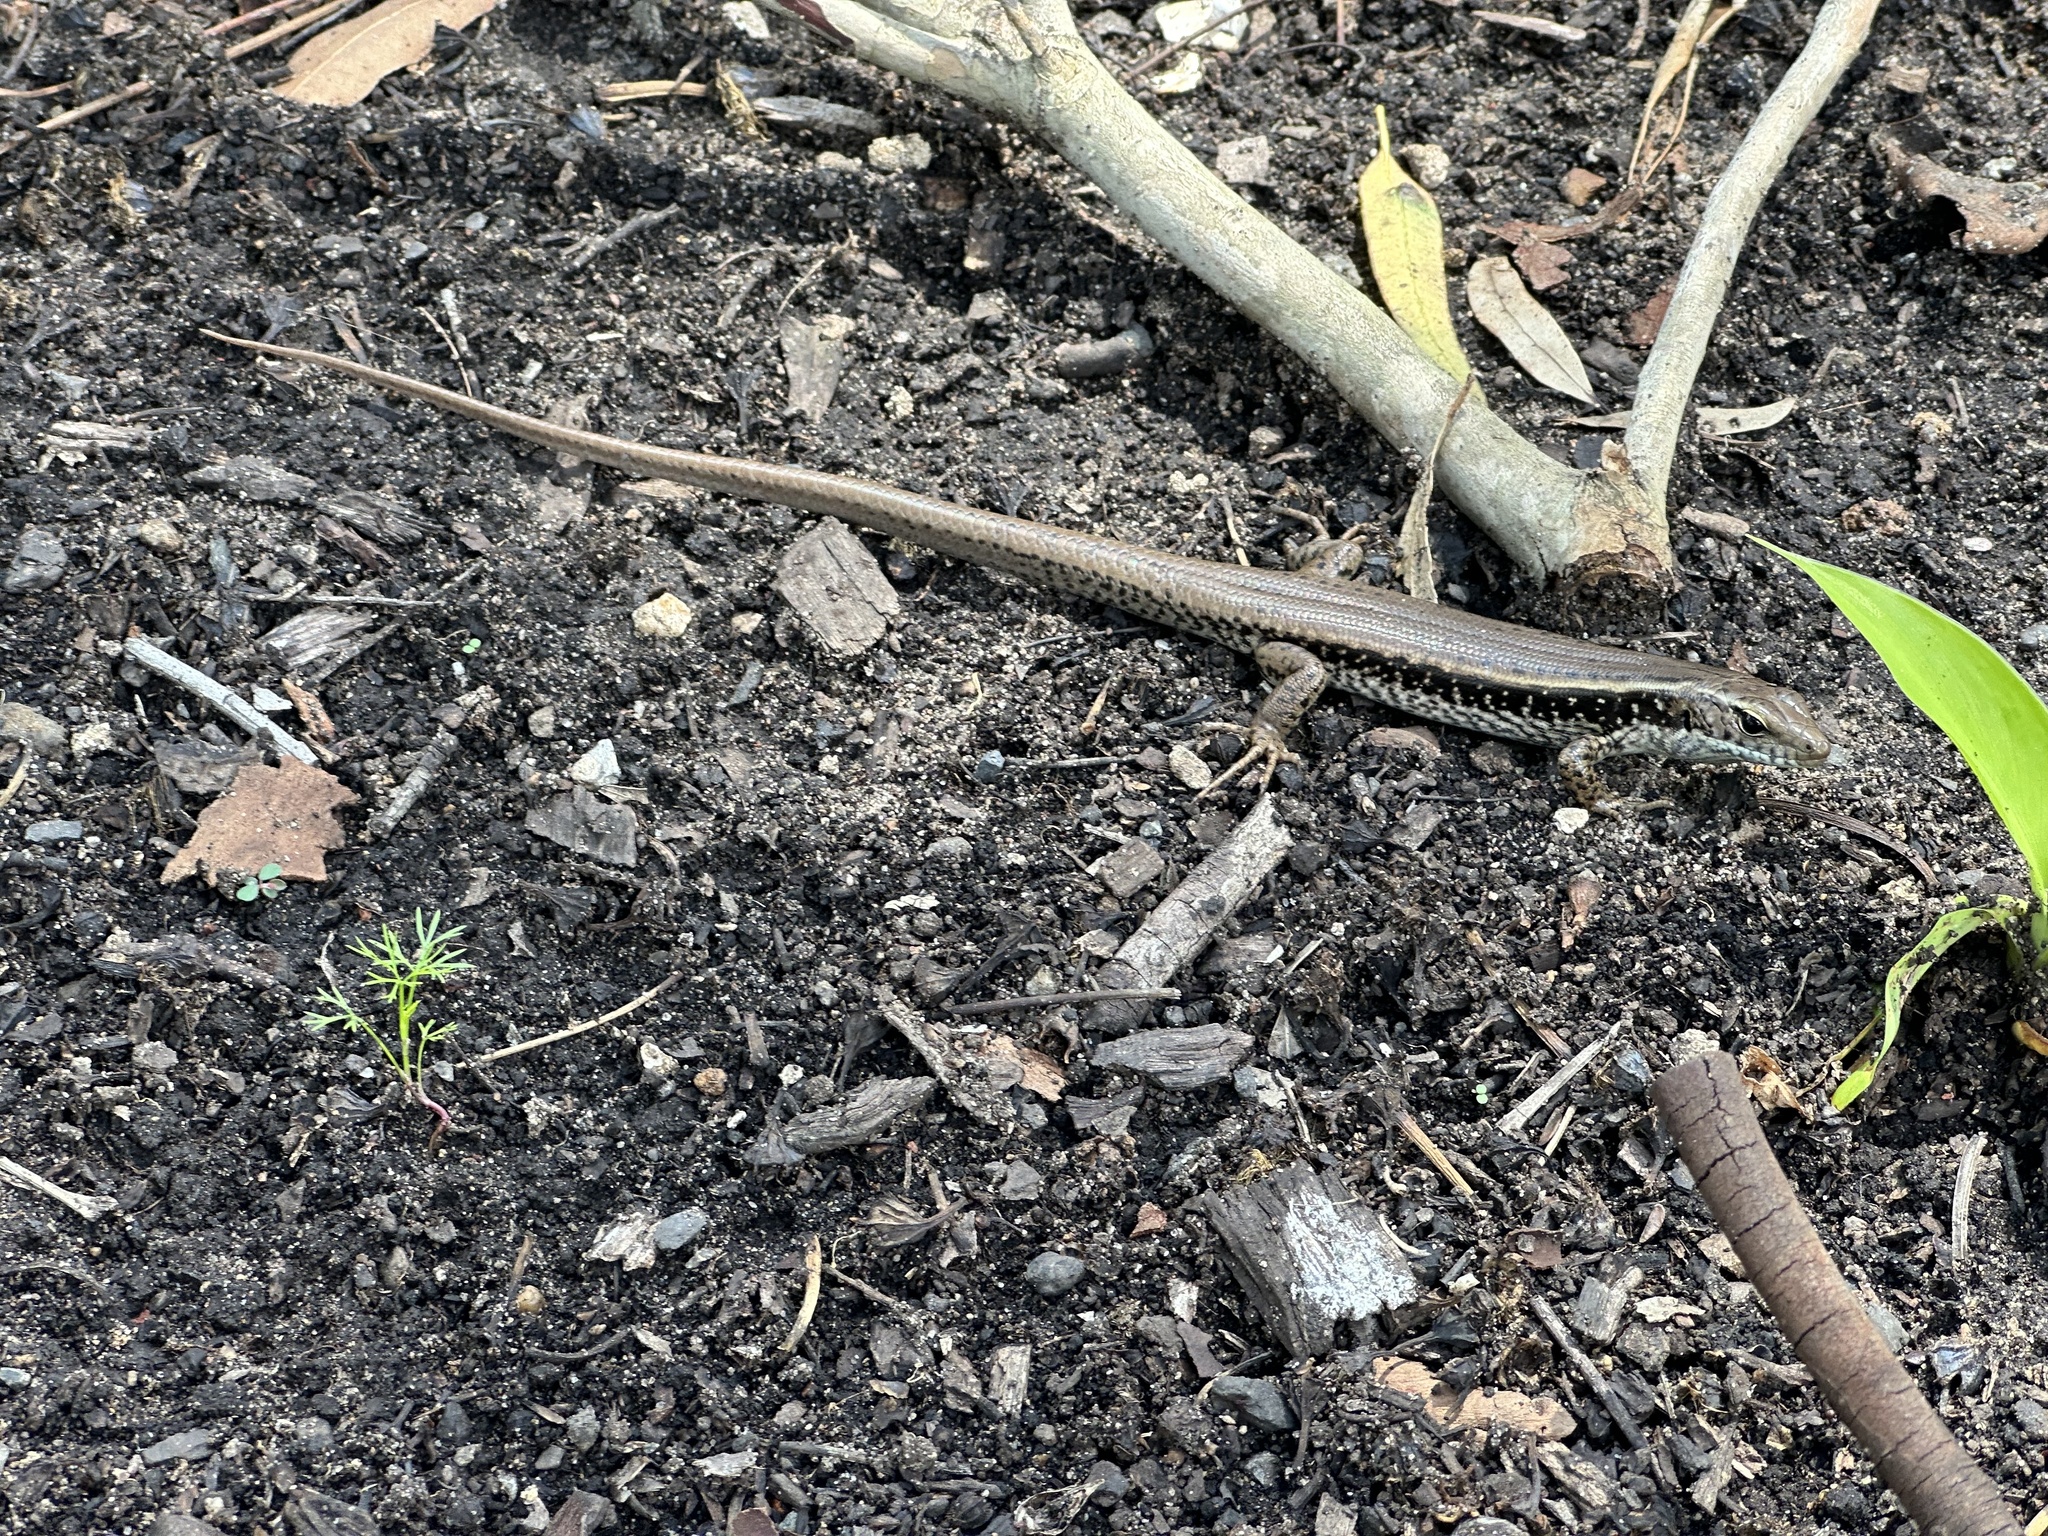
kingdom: Animalia
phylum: Chordata
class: Squamata
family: Scincidae
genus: Eulamprus
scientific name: Eulamprus quoyii
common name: Eastern water skink
